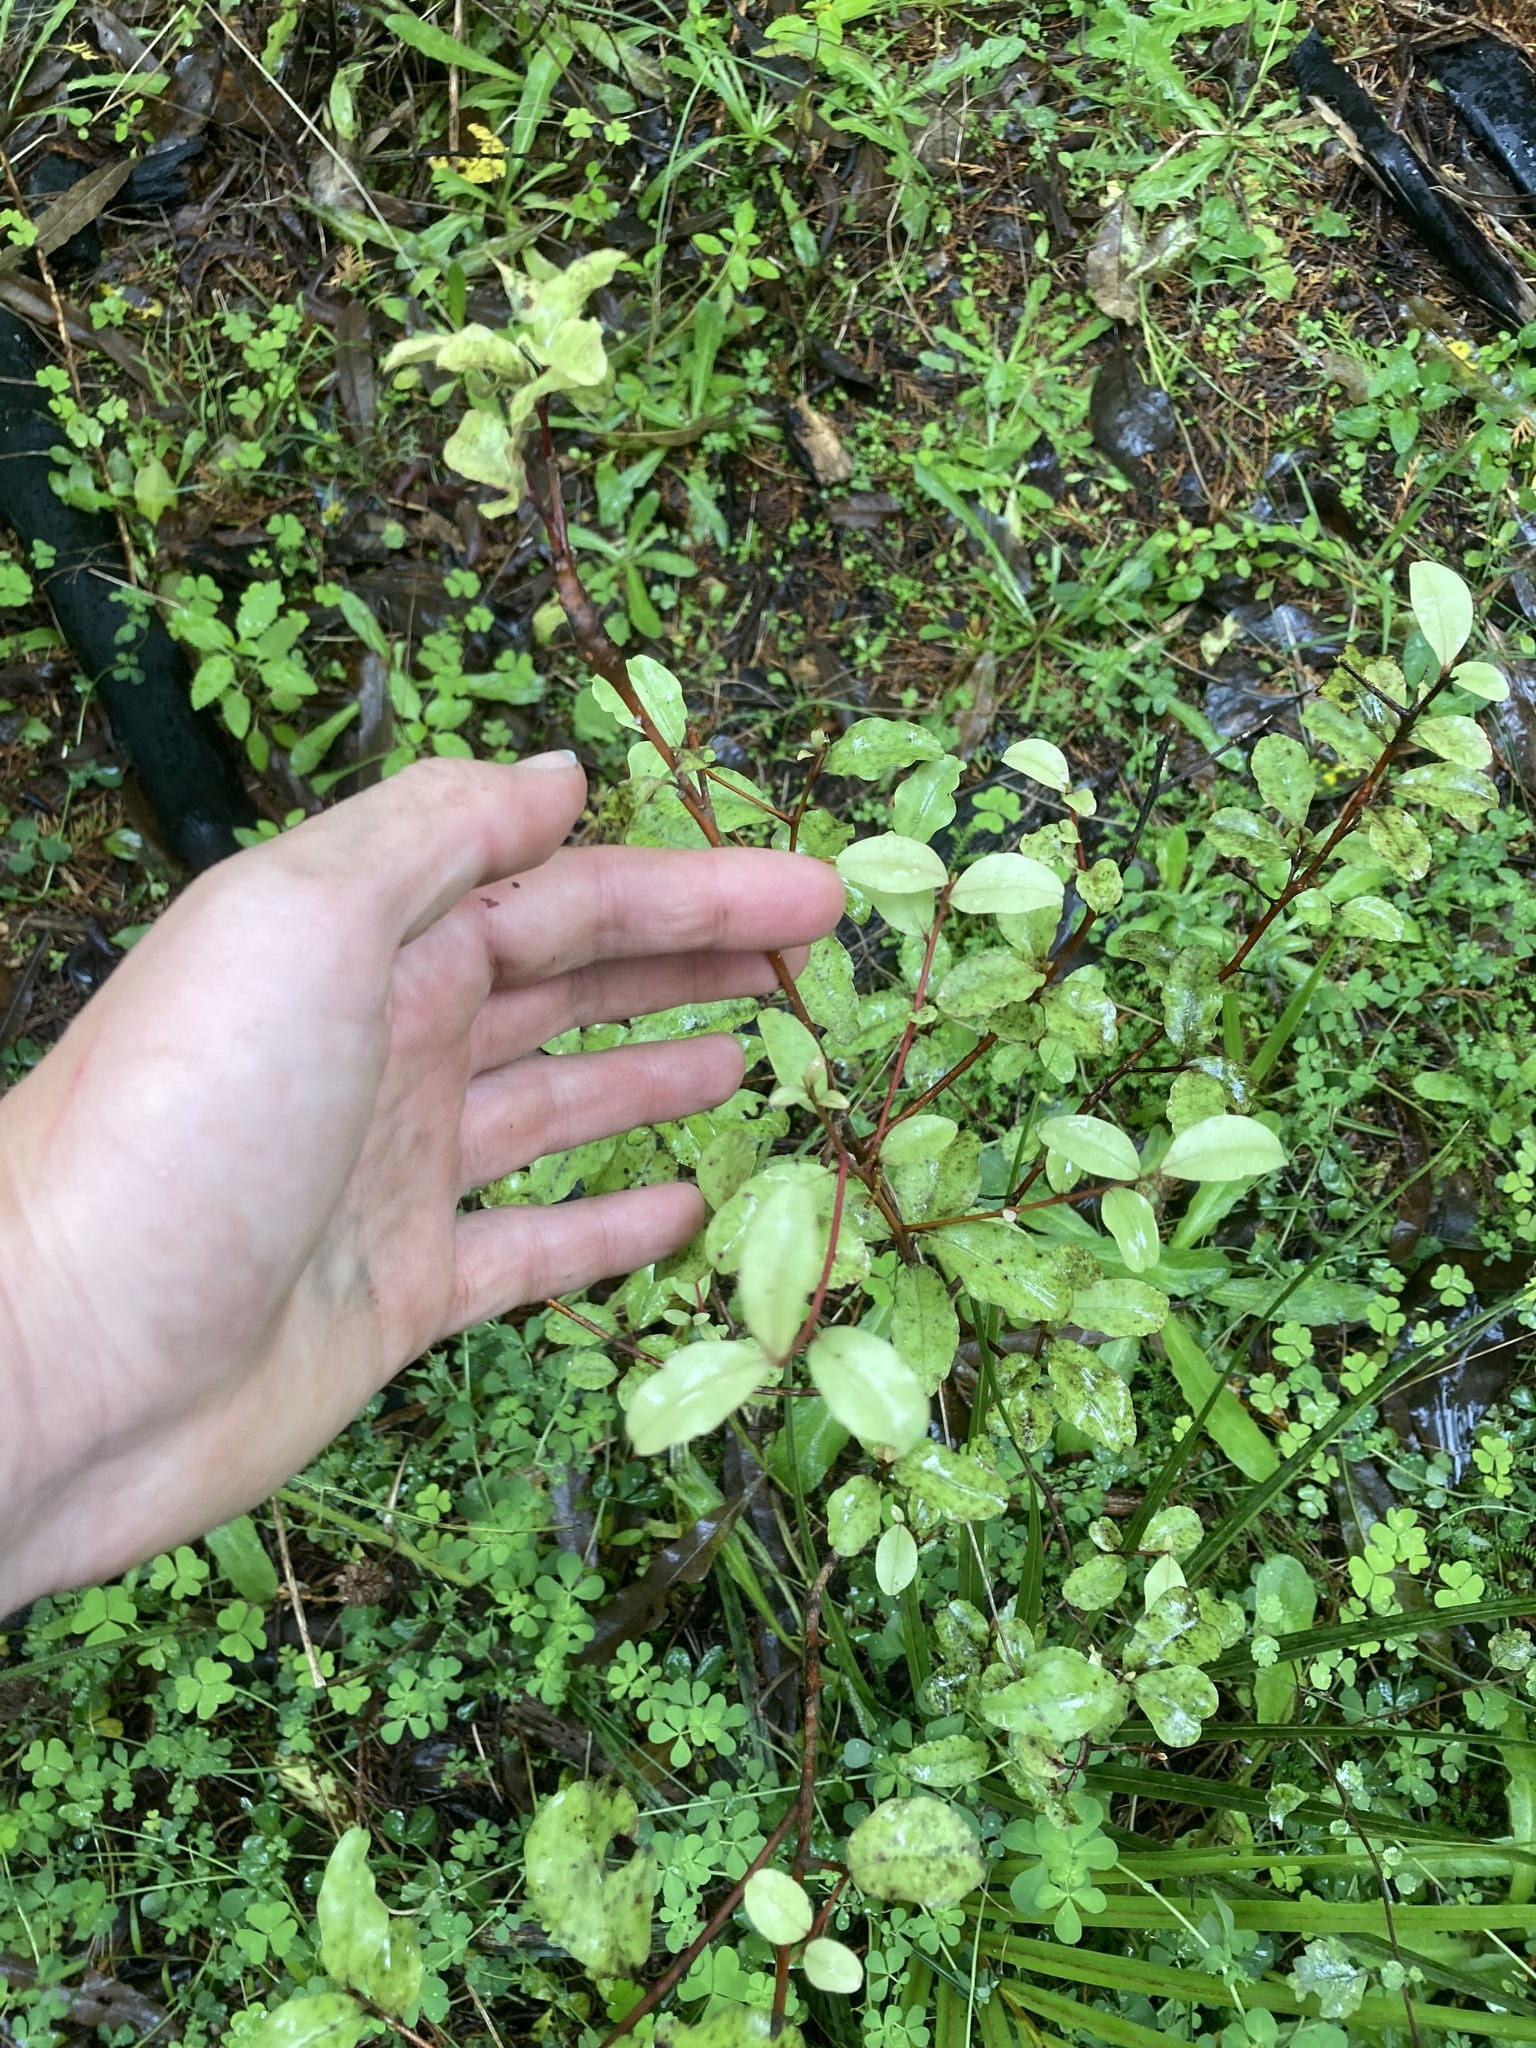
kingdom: Plantae
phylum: Tracheophyta
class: Magnoliopsida
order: Ericales
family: Primulaceae
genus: Myrsine
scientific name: Myrsine australis
